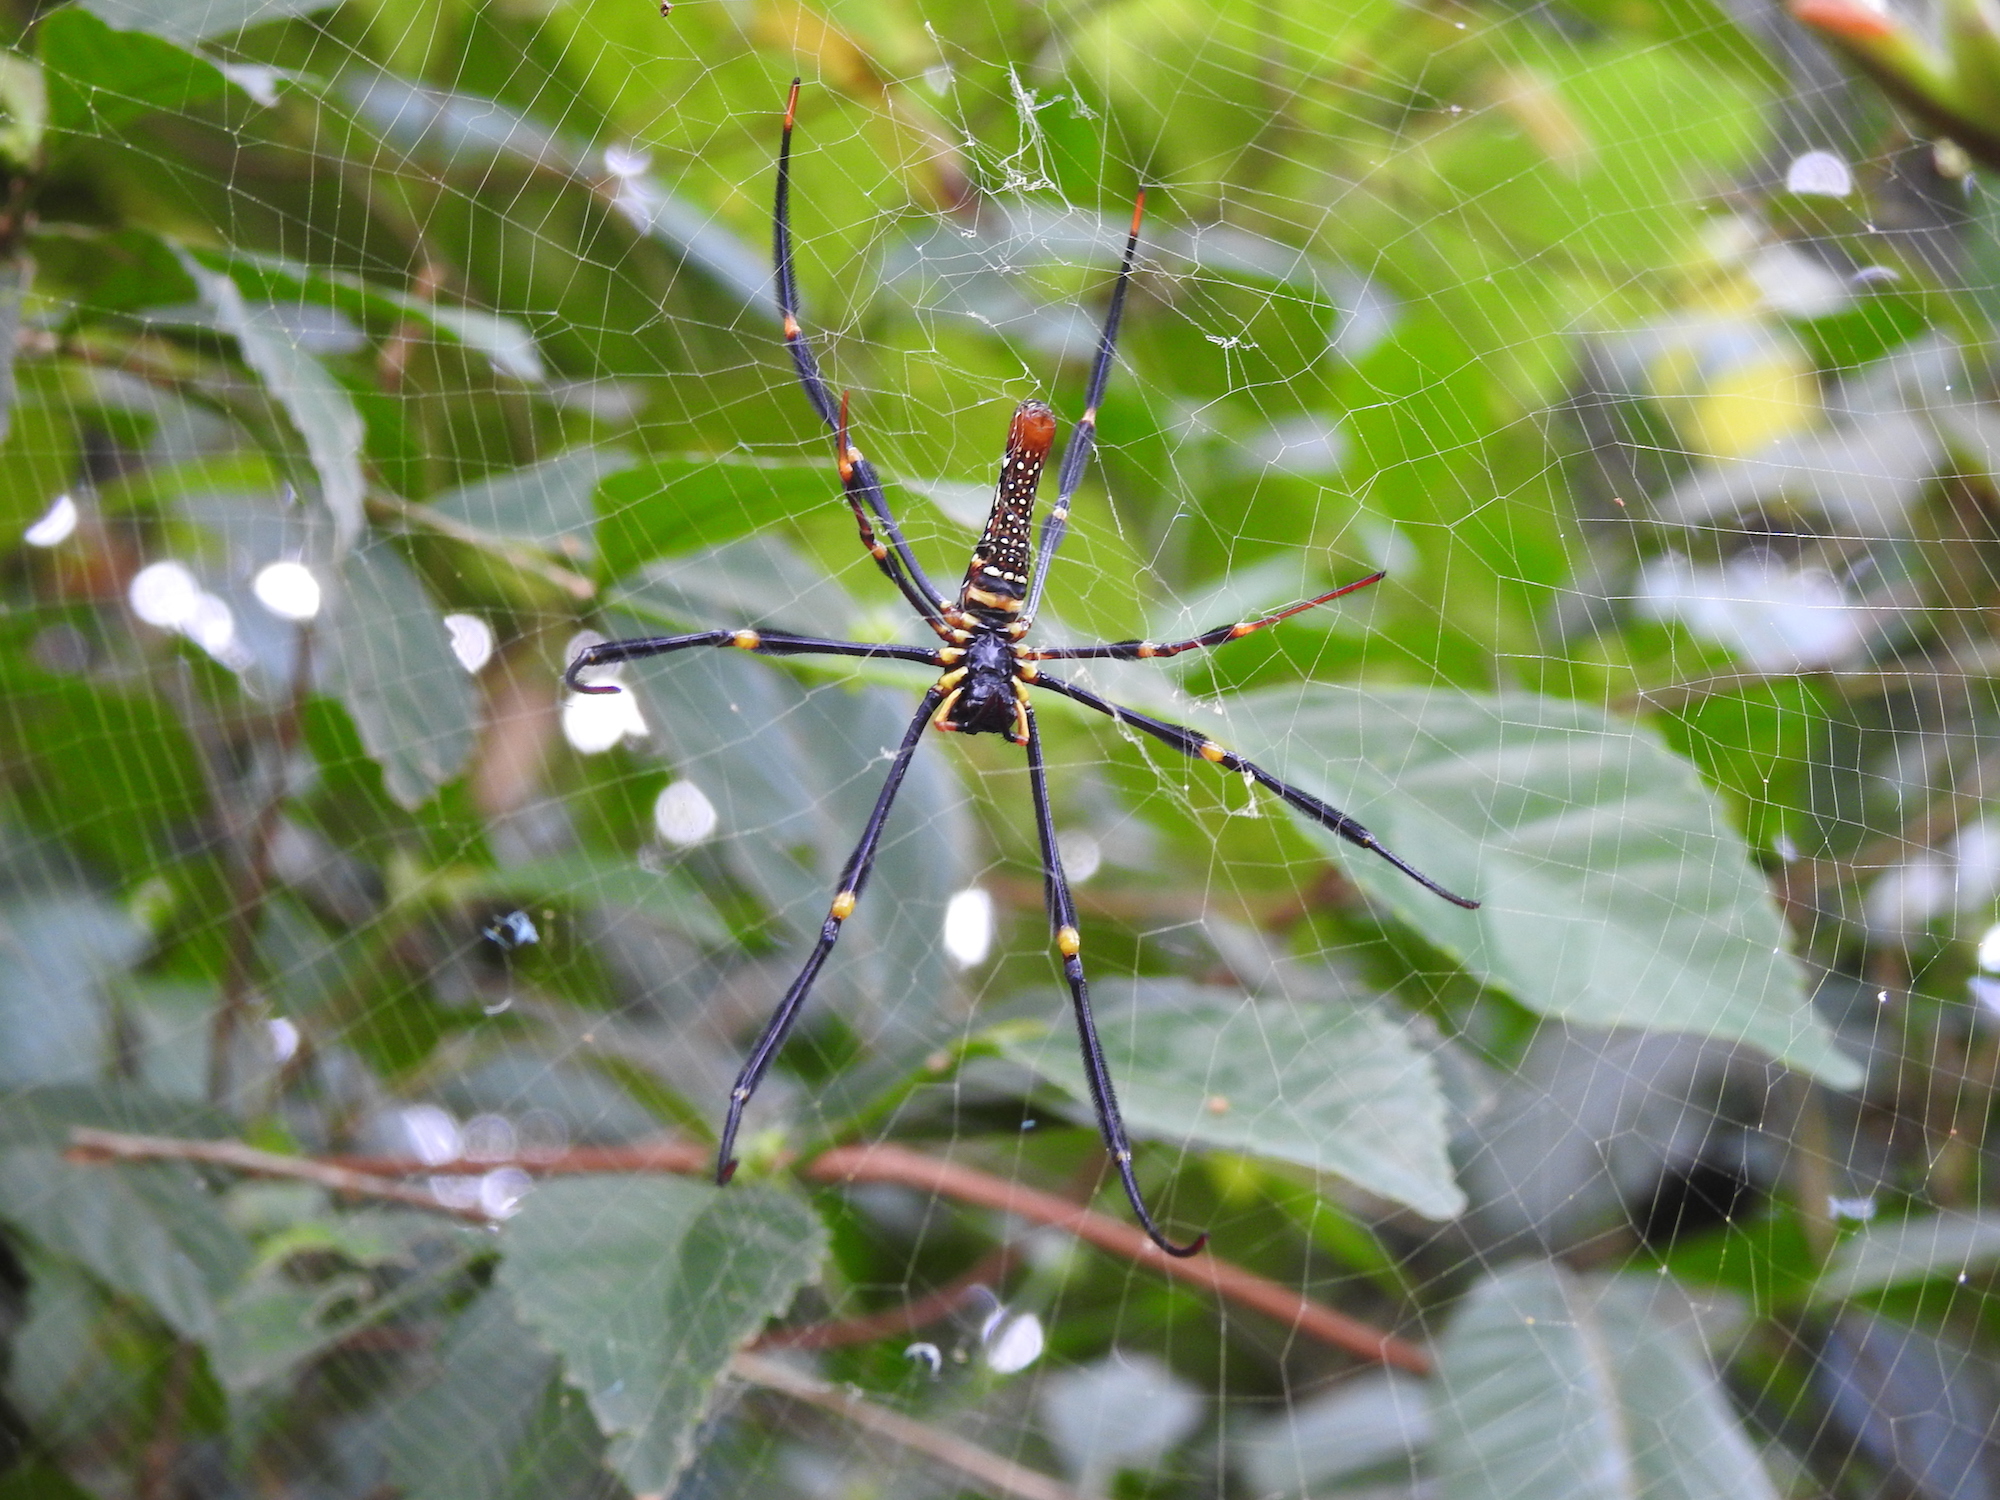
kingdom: Animalia
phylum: Arthropoda
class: Arachnida
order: Araneae
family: Araneidae
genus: Nephila
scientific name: Nephila pilipes
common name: Giant golden orb weaver
